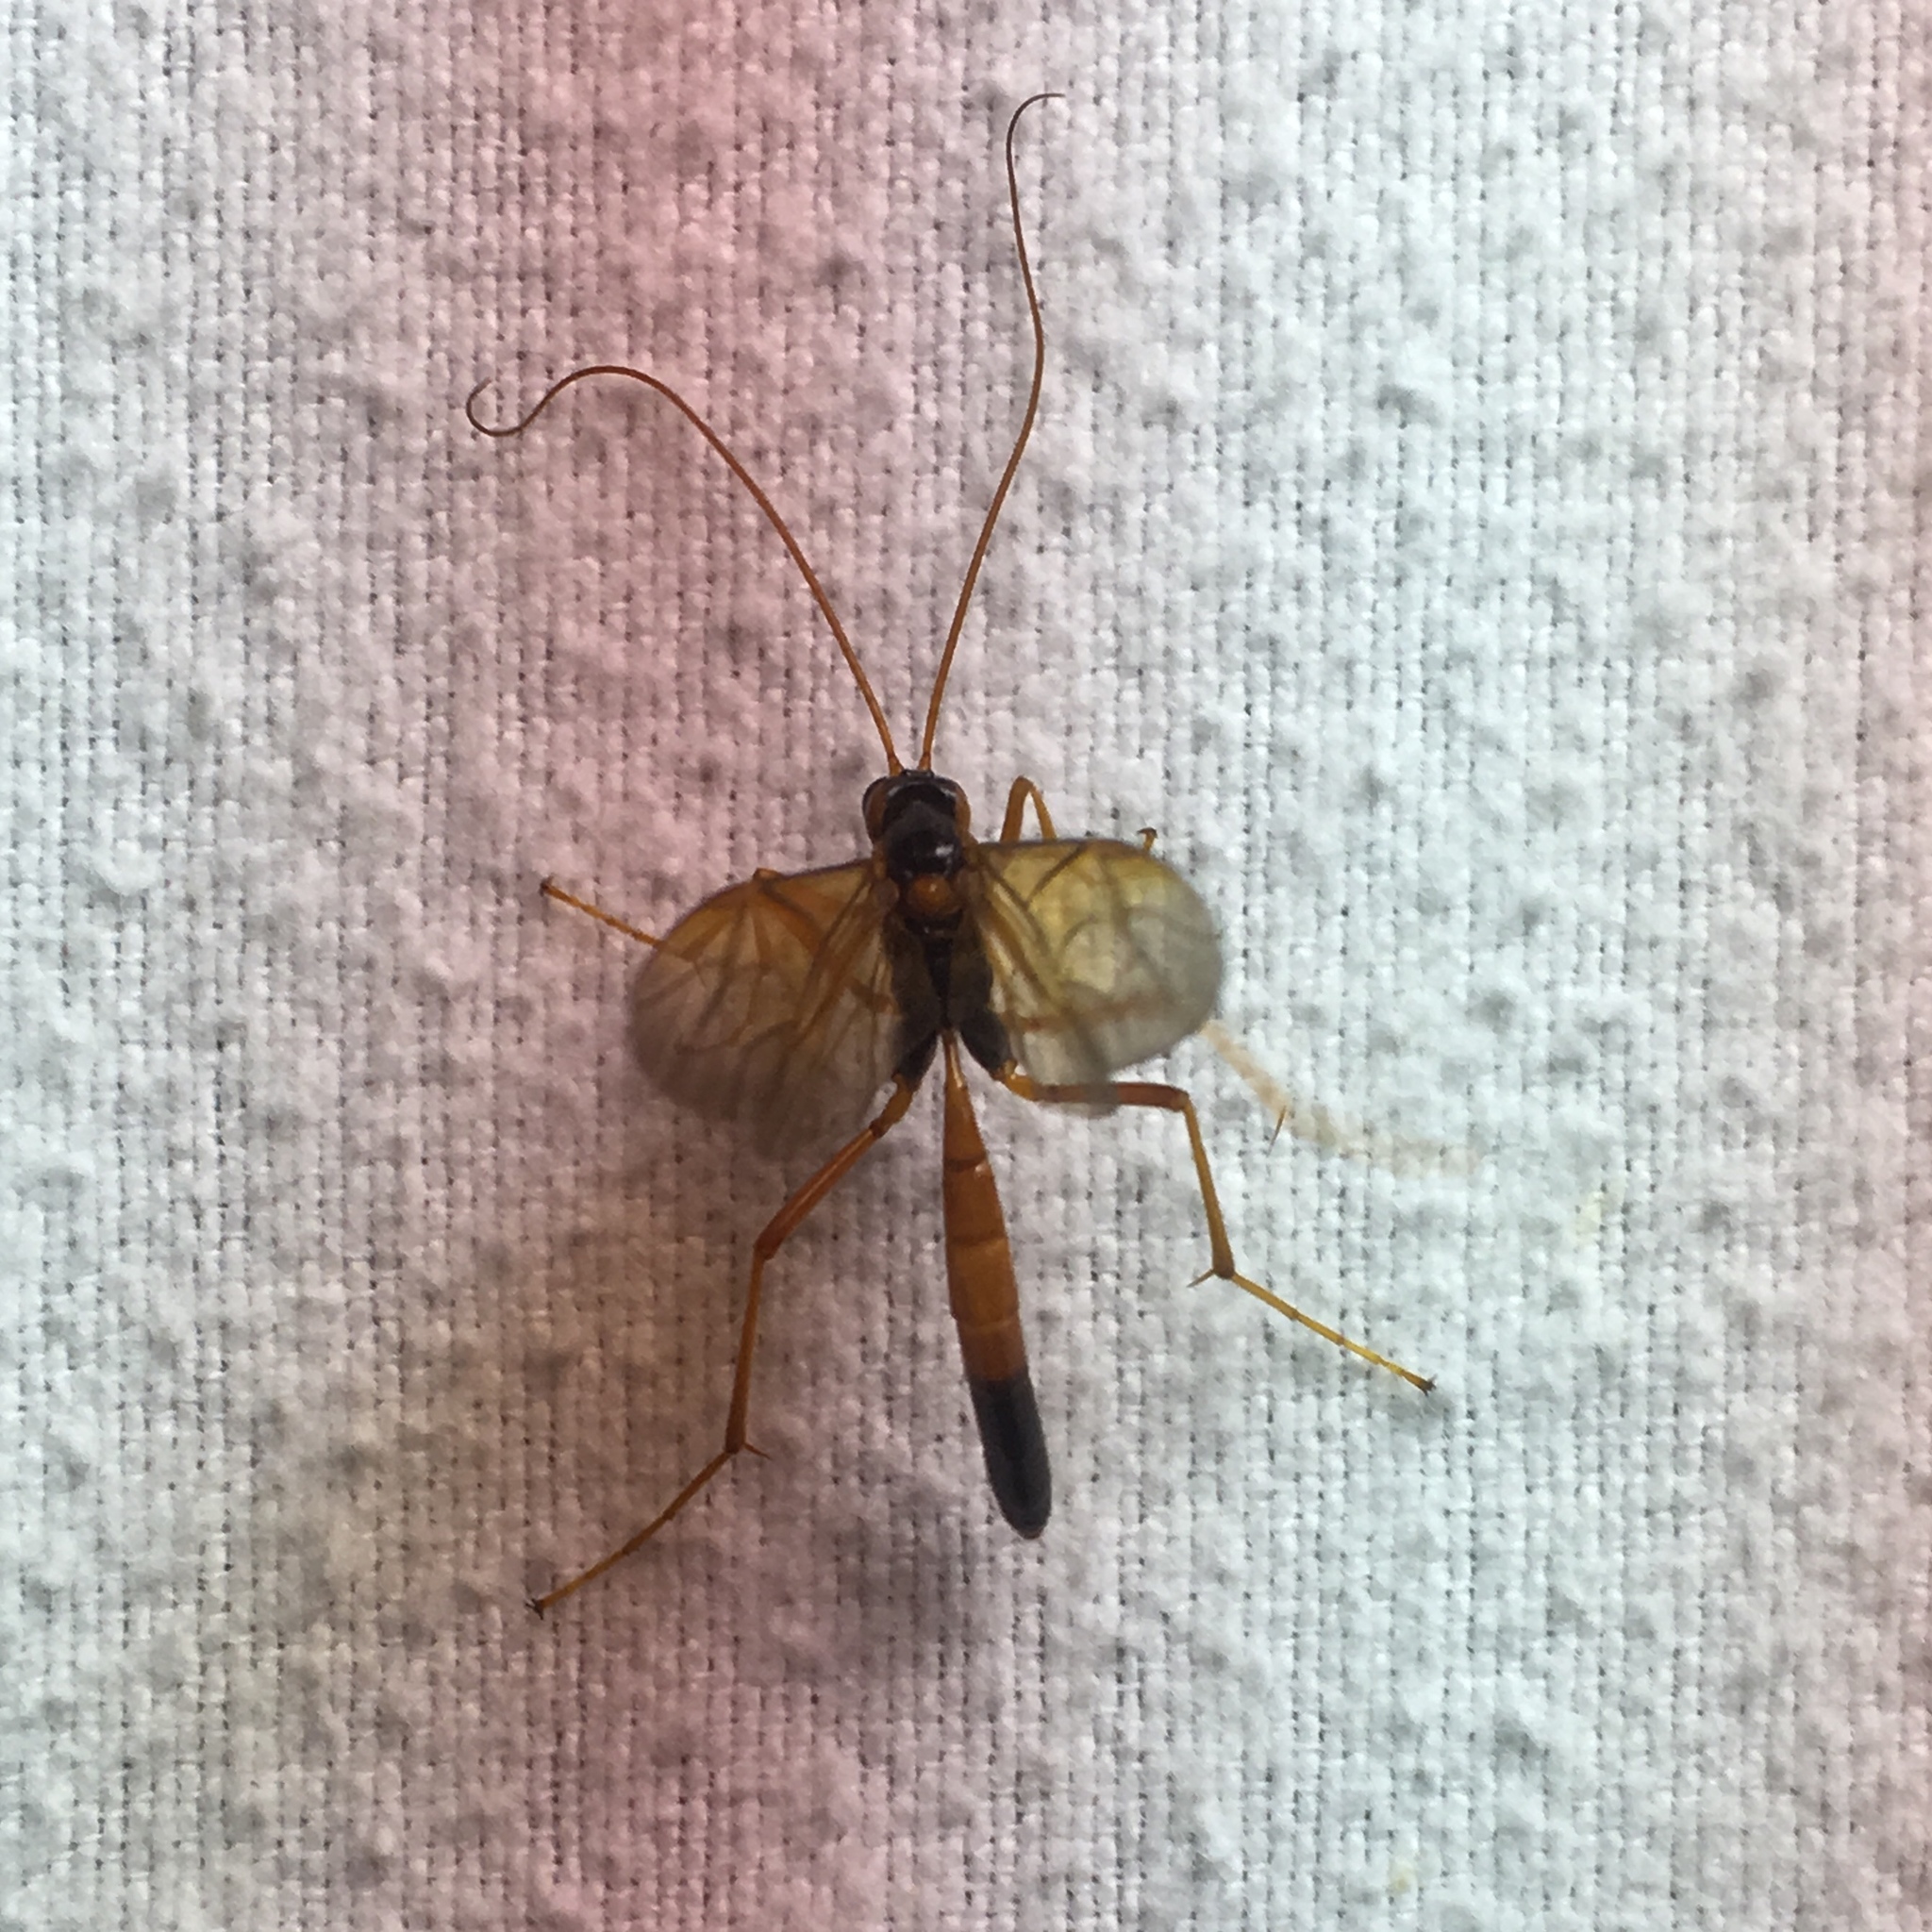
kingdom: Animalia
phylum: Arthropoda
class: Insecta
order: Hymenoptera
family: Ichneumonidae
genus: Opheltes
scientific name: Opheltes glaucopterus
